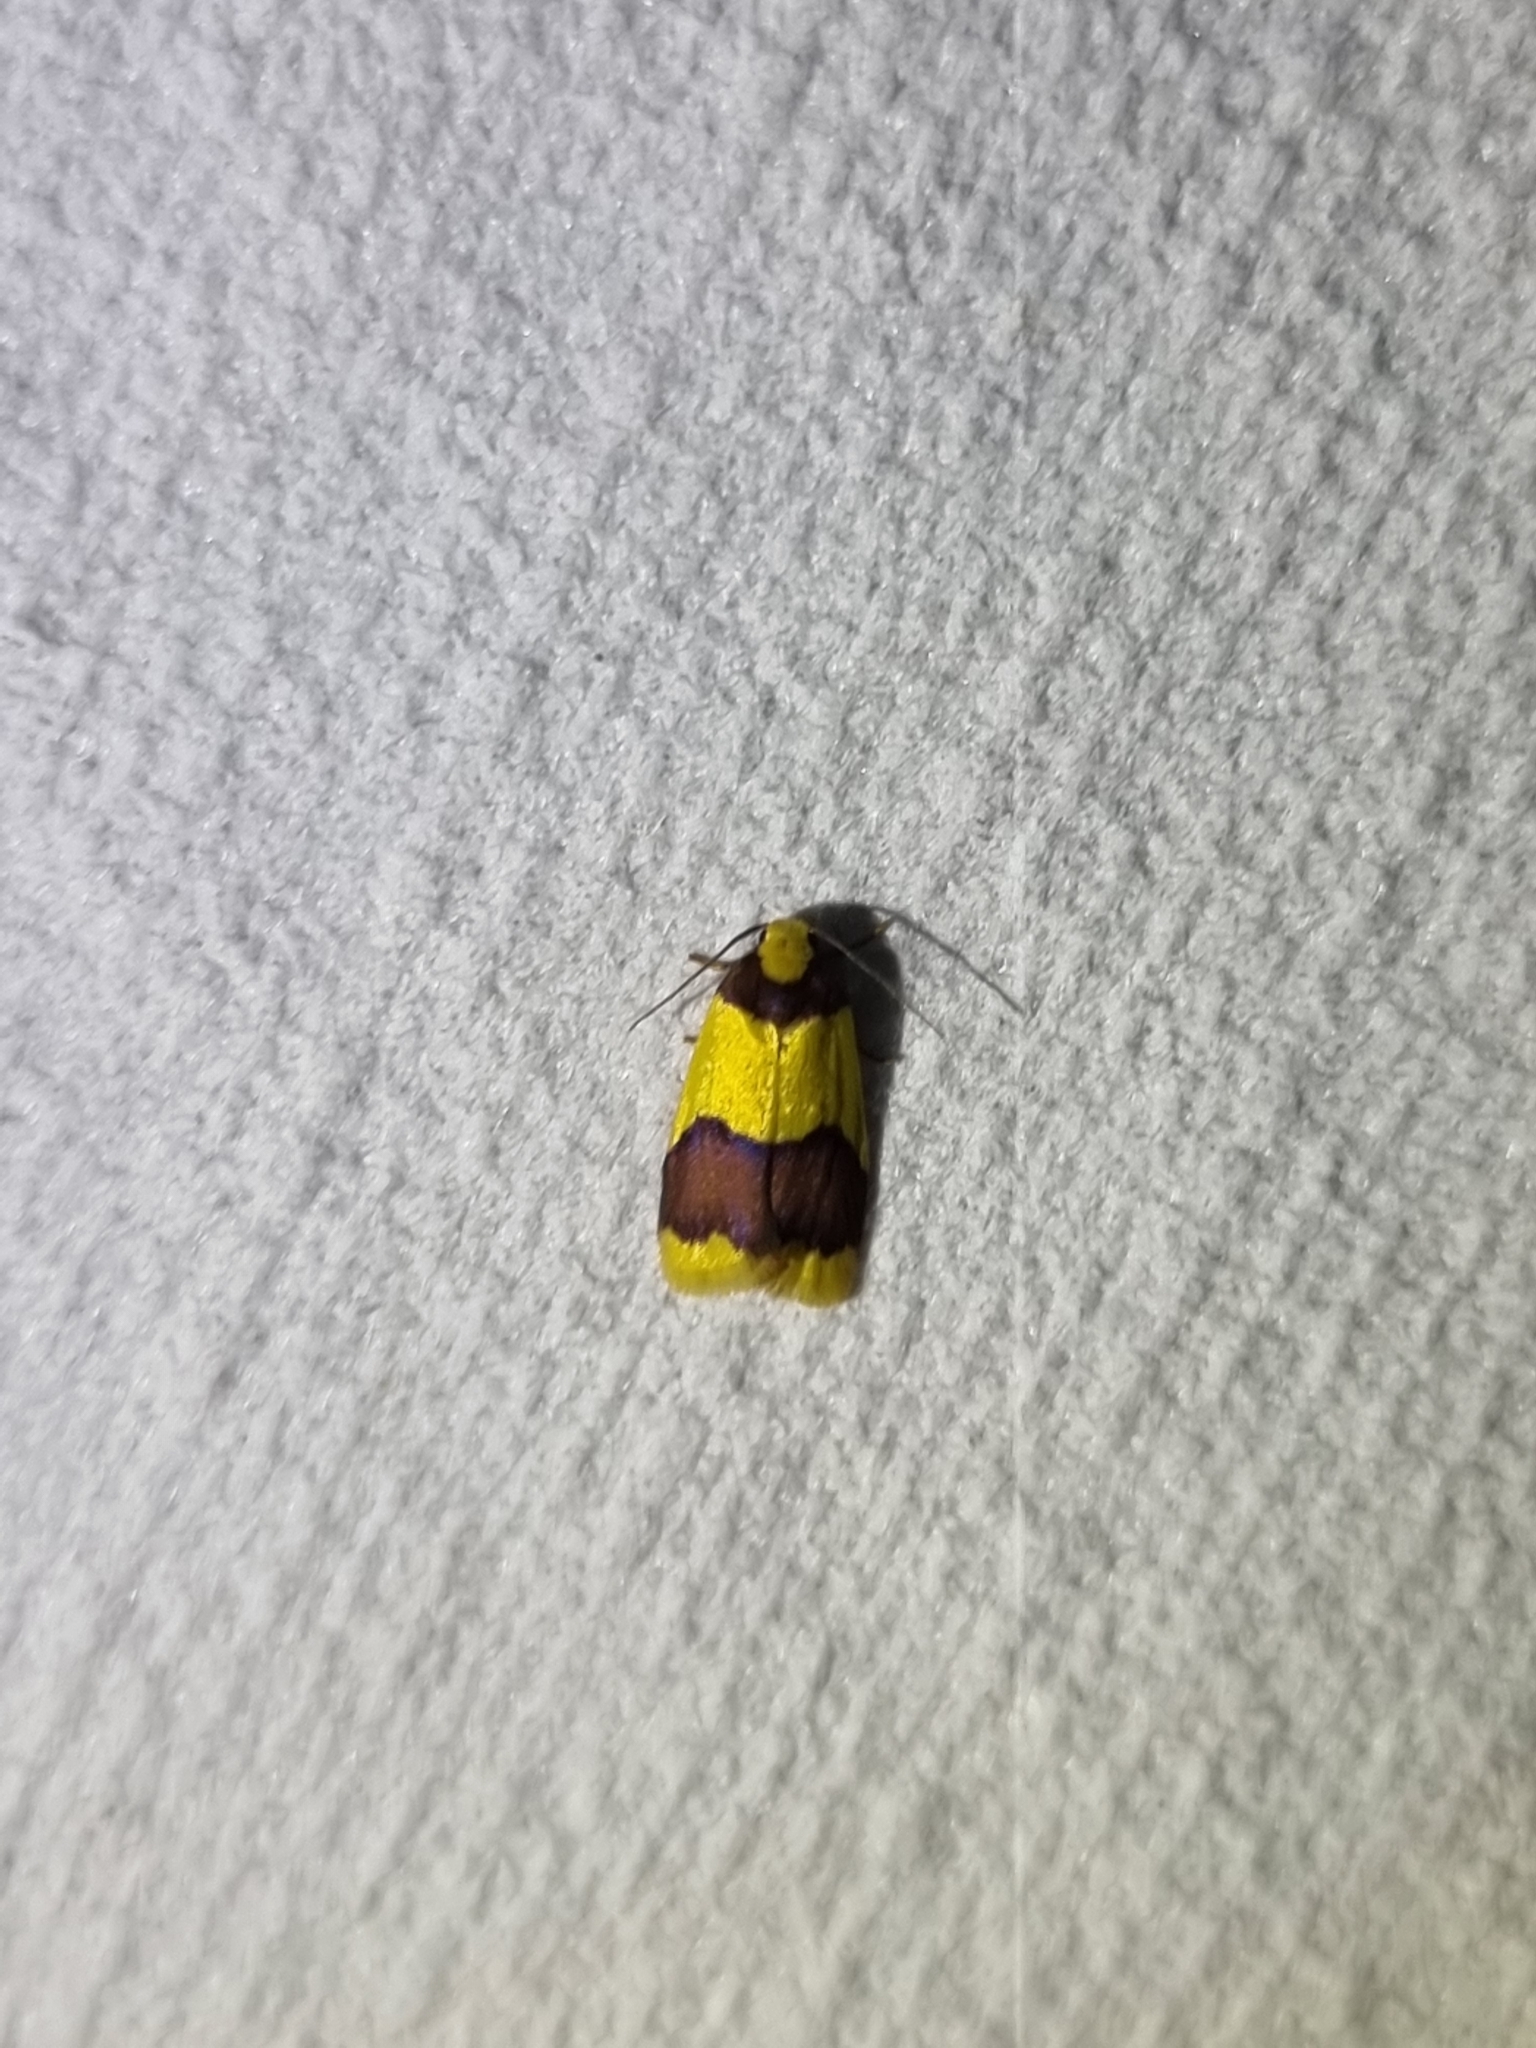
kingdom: Animalia
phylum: Arthropoda
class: Insecta
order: Lepidoptera
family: Erebidae
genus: Heterallactis
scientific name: Heterallactis microchrysa
